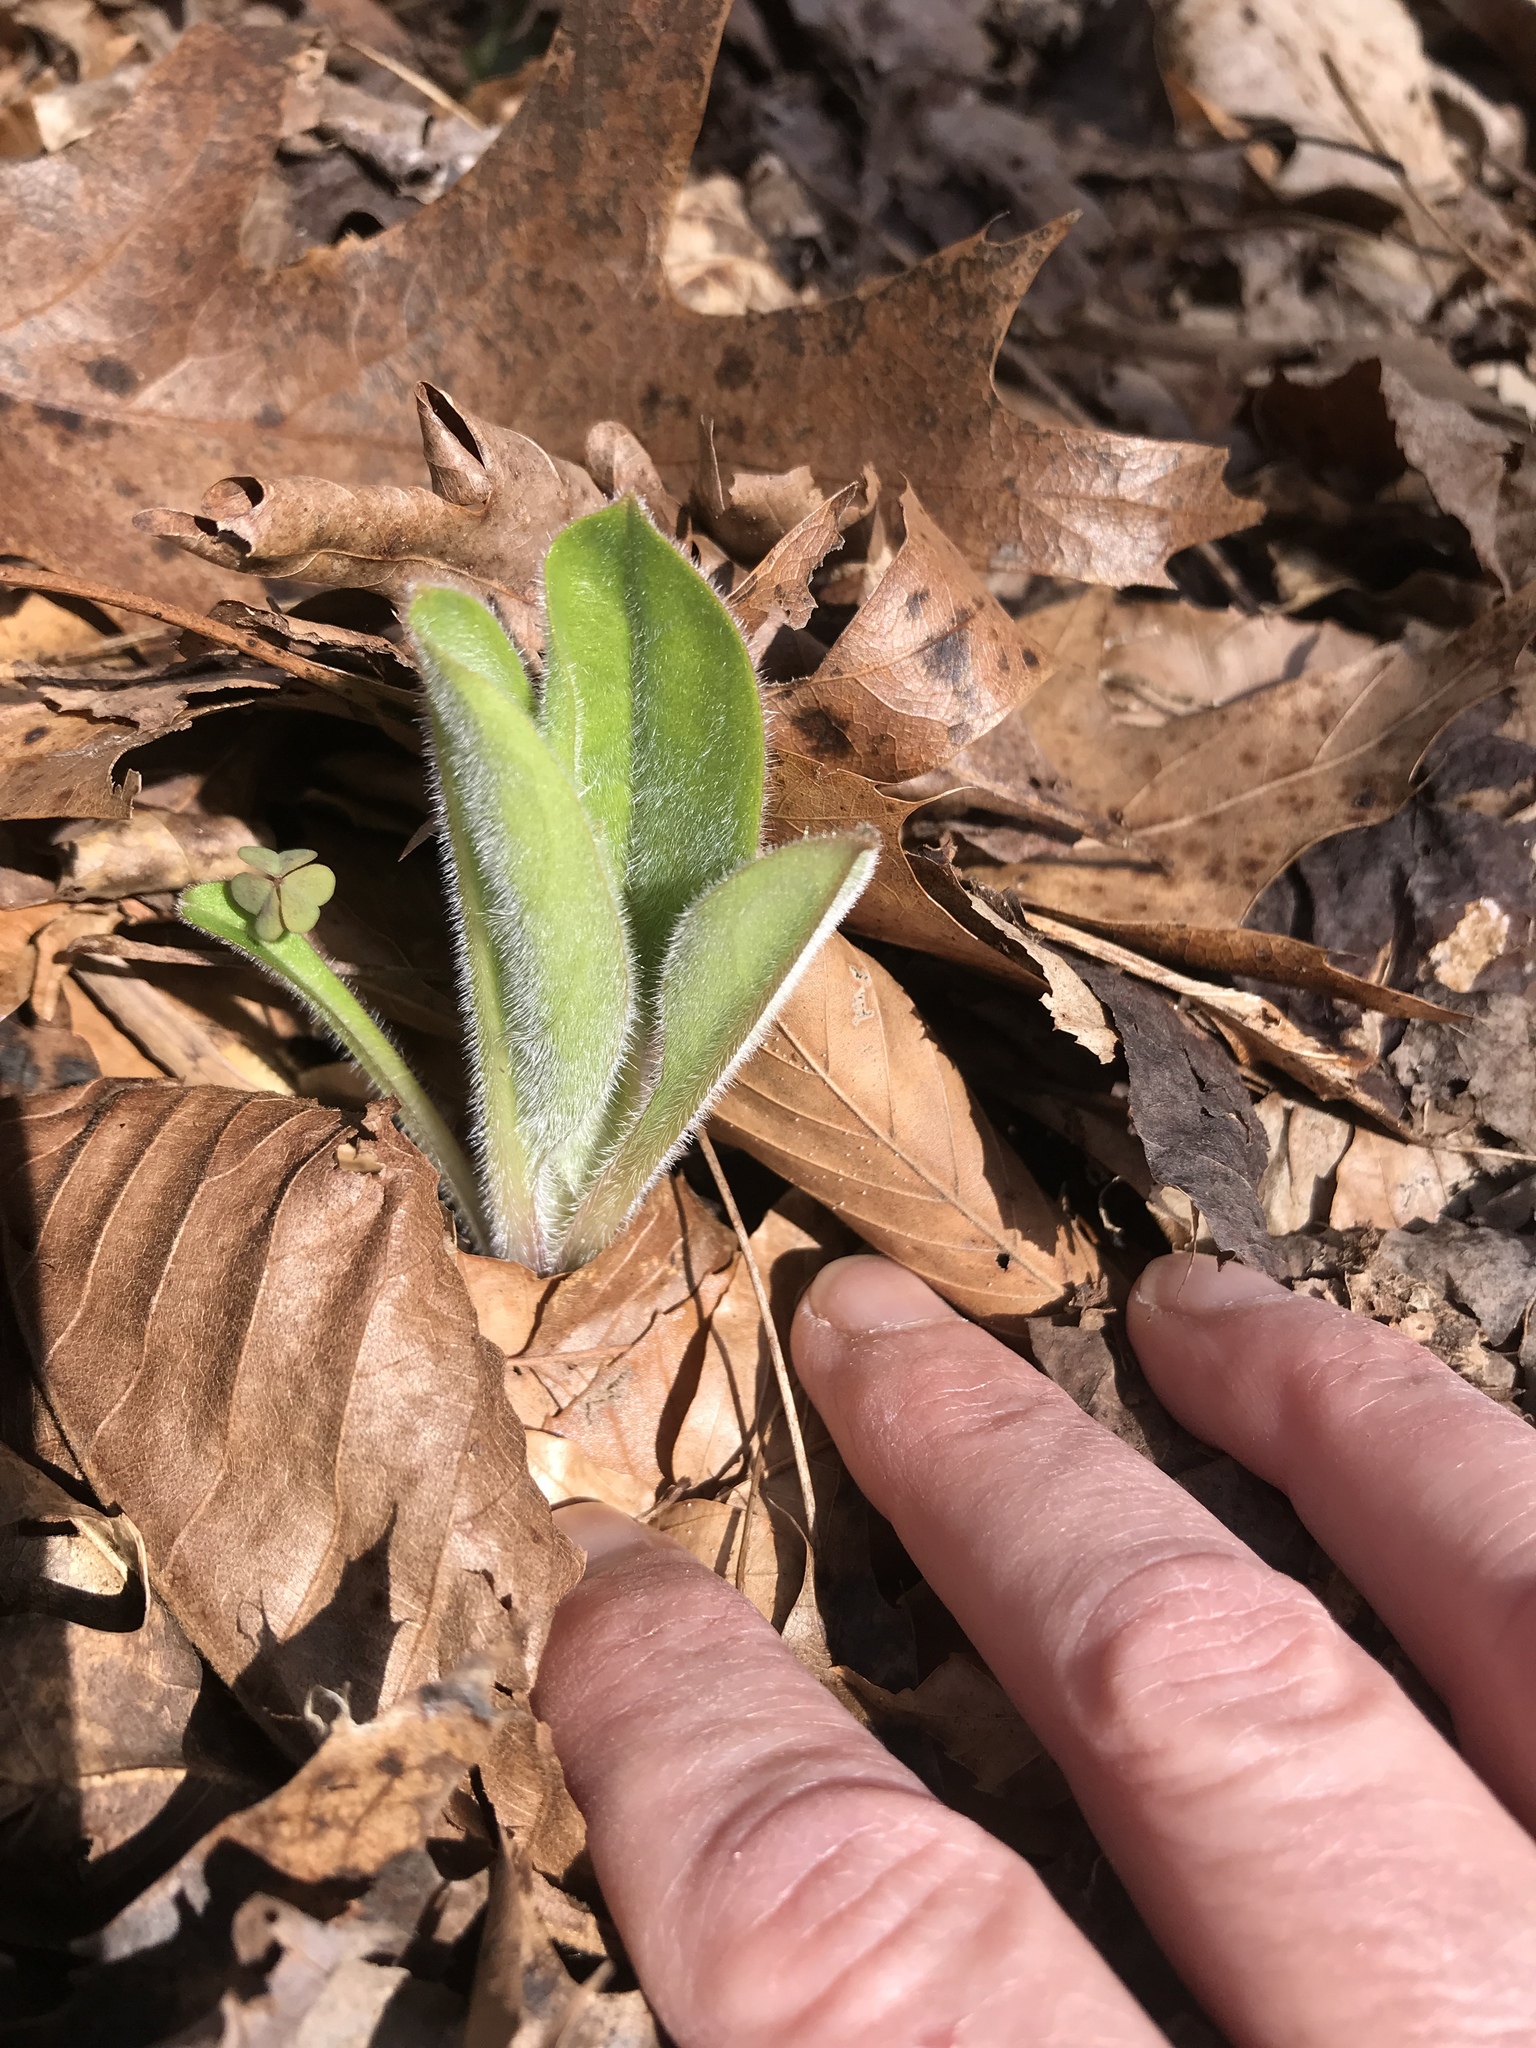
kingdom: Plantae
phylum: Tracheophyta
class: Magnoliopsida
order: Boraginales
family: Boraginaceae
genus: Andersonglossum
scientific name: Andersonglossum virginianum
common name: Wild comfrey
